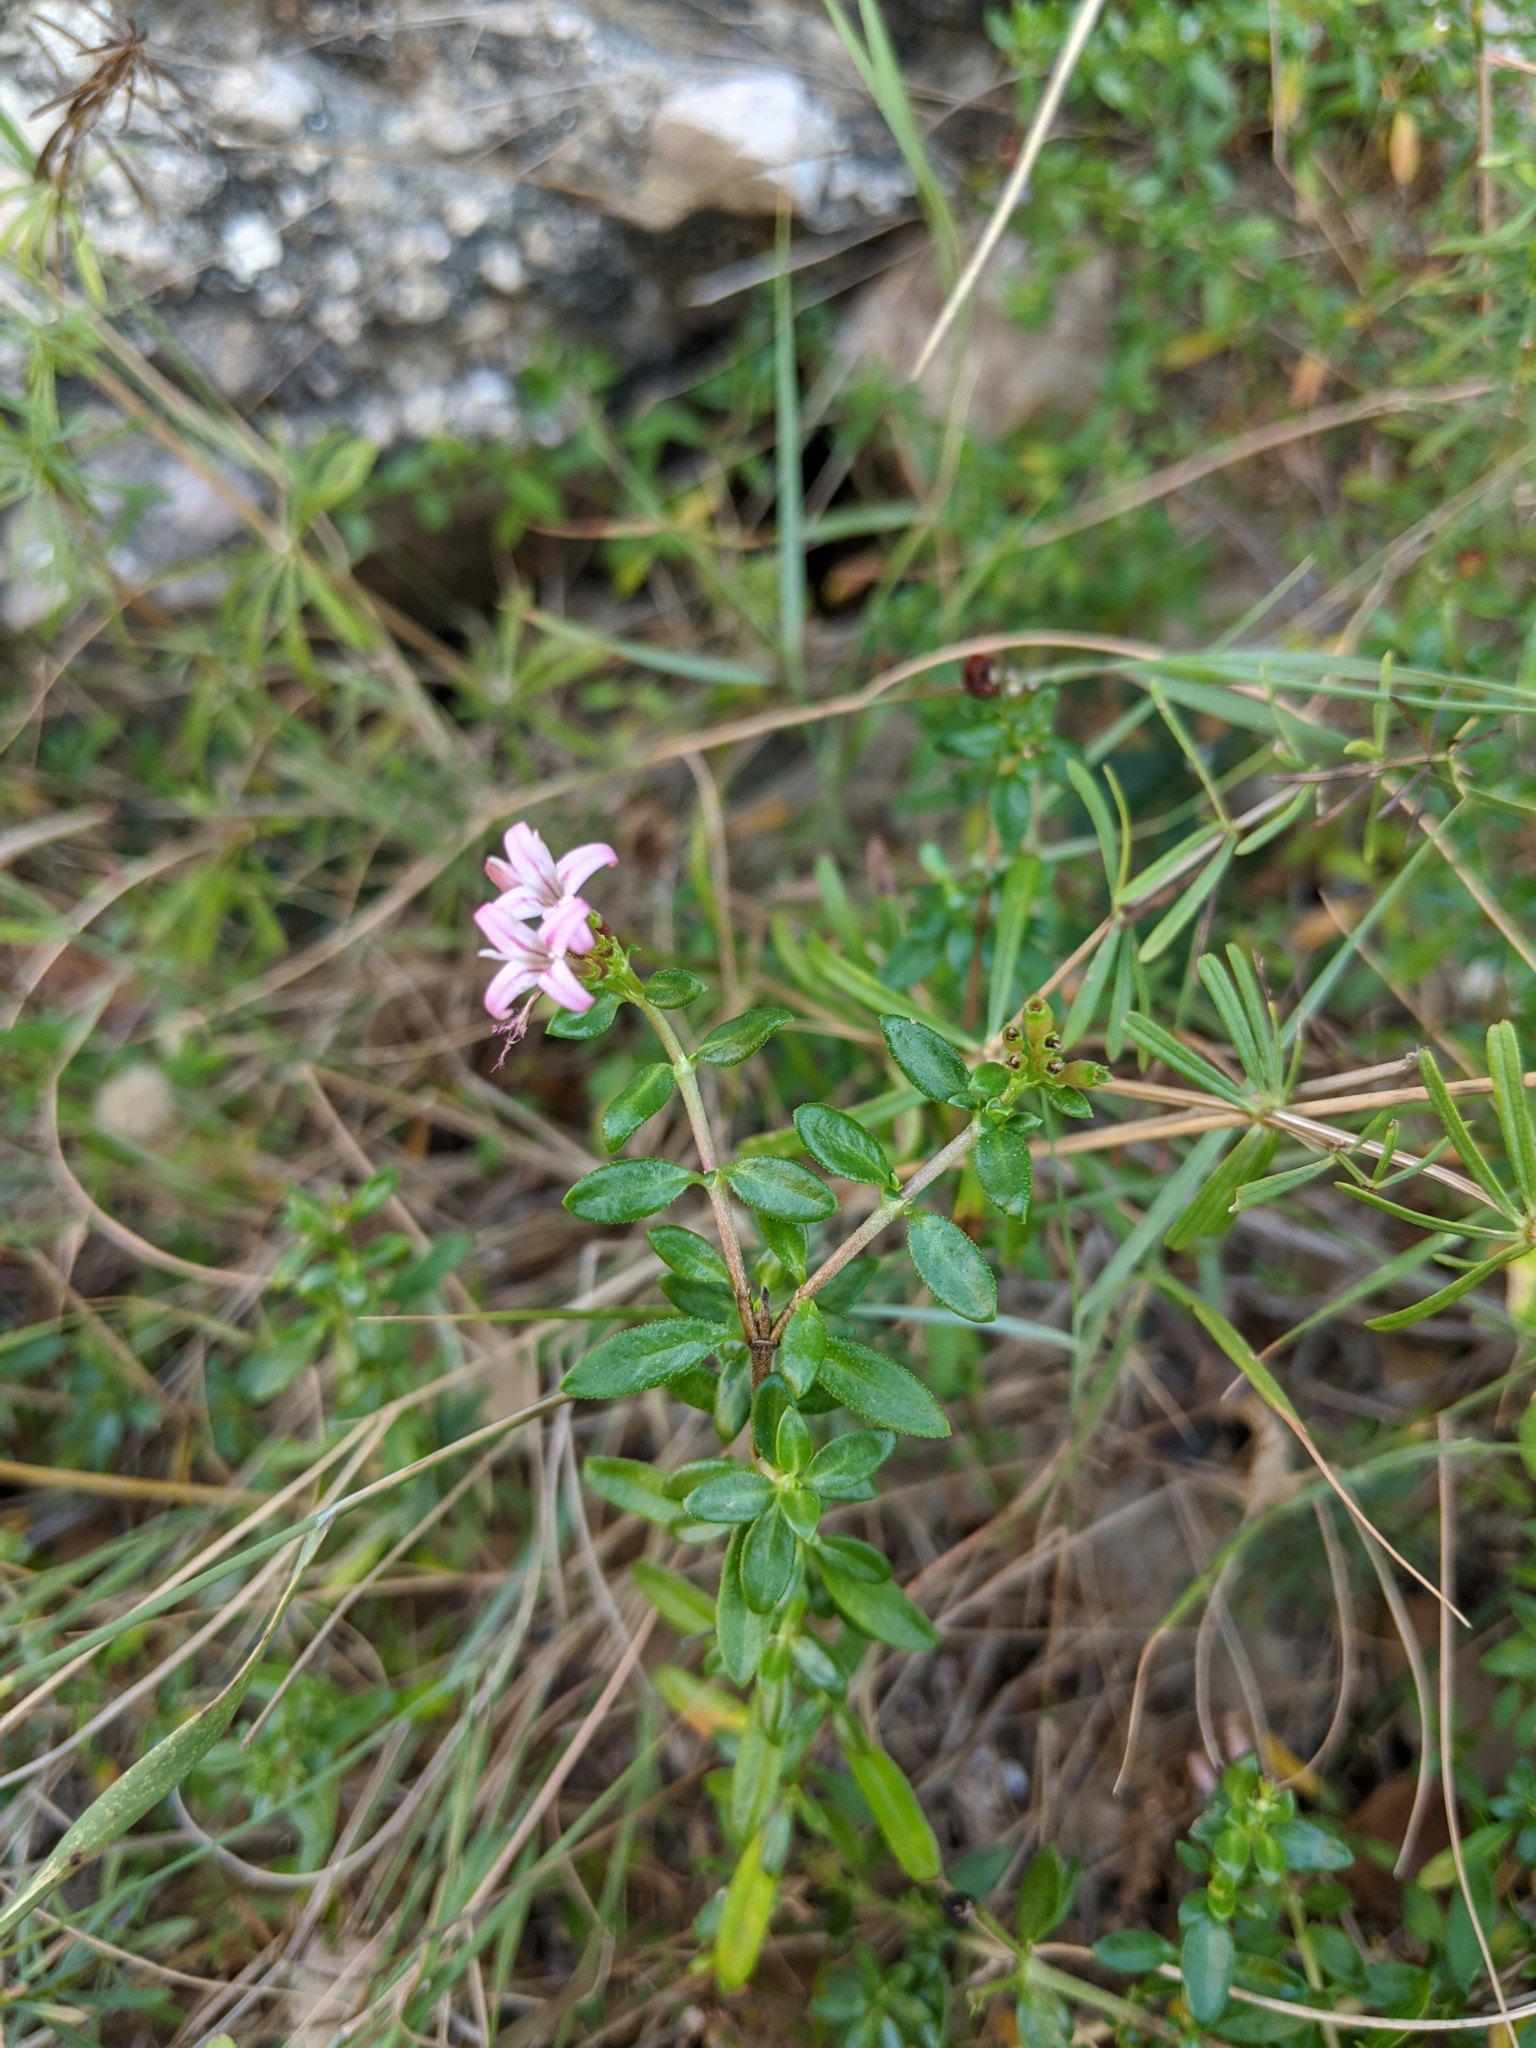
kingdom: Plantae
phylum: Tracheophyta
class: Magnoliopsida
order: Gentianales
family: Rubiaceae
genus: Plocama
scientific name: Plocama calabrica
